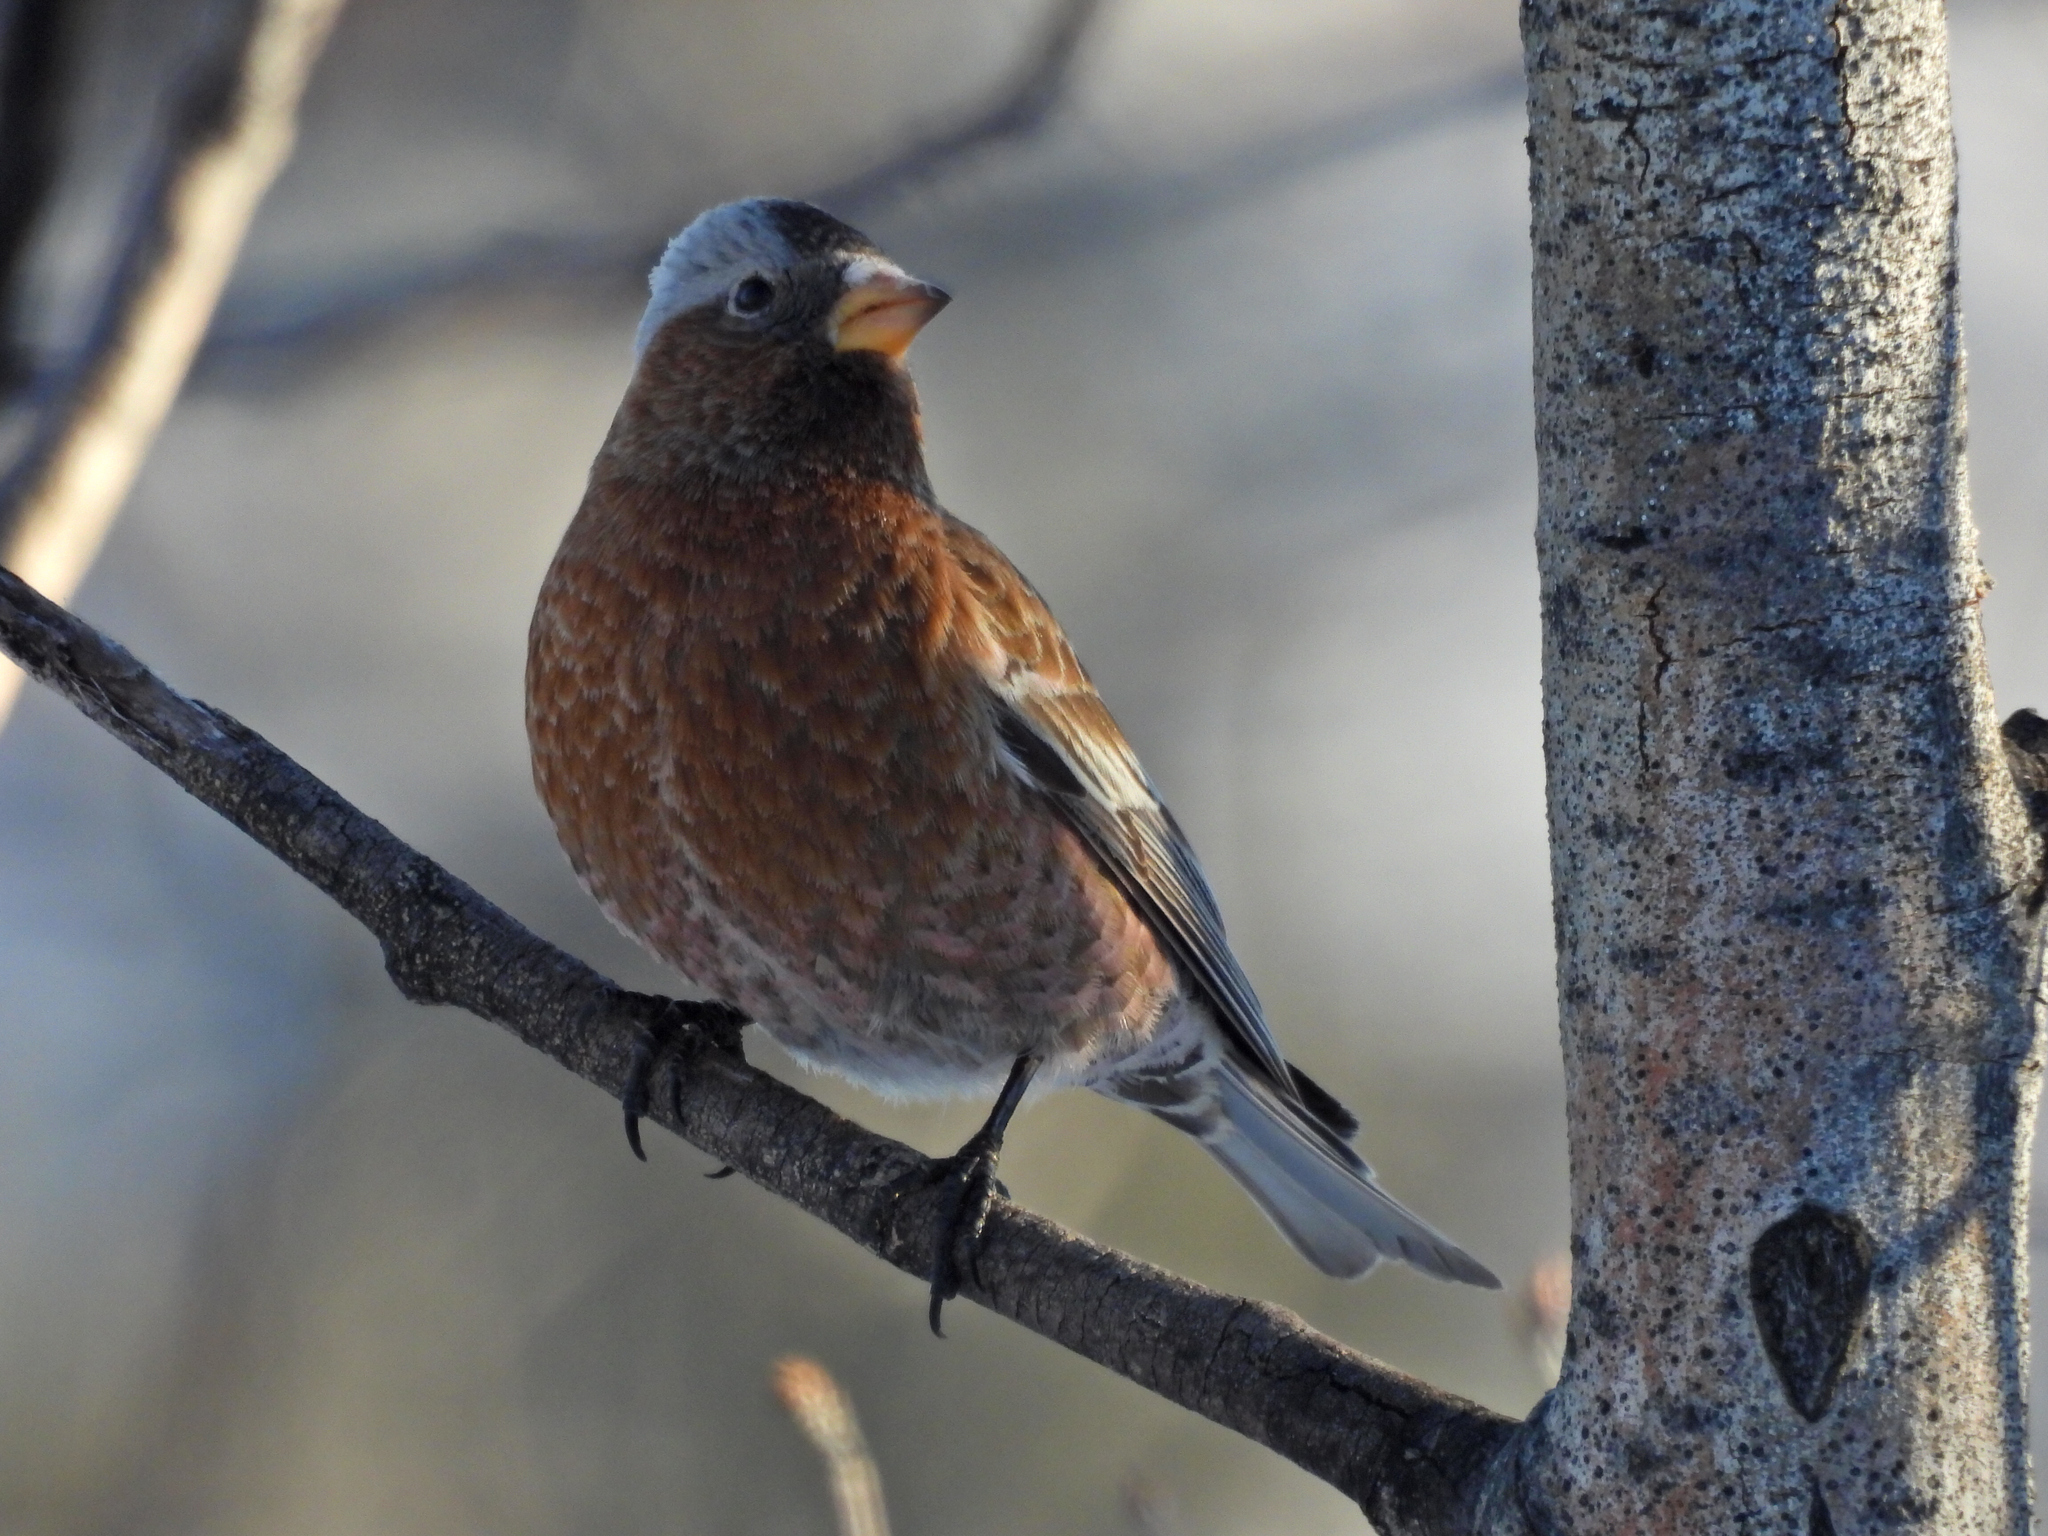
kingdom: Animalia
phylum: Chordata
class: Aves
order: Passeriformes
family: Fringillidae
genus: Leucosticte
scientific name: Leucosticte tephrocotis
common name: Gray-crowned rosy-finch
